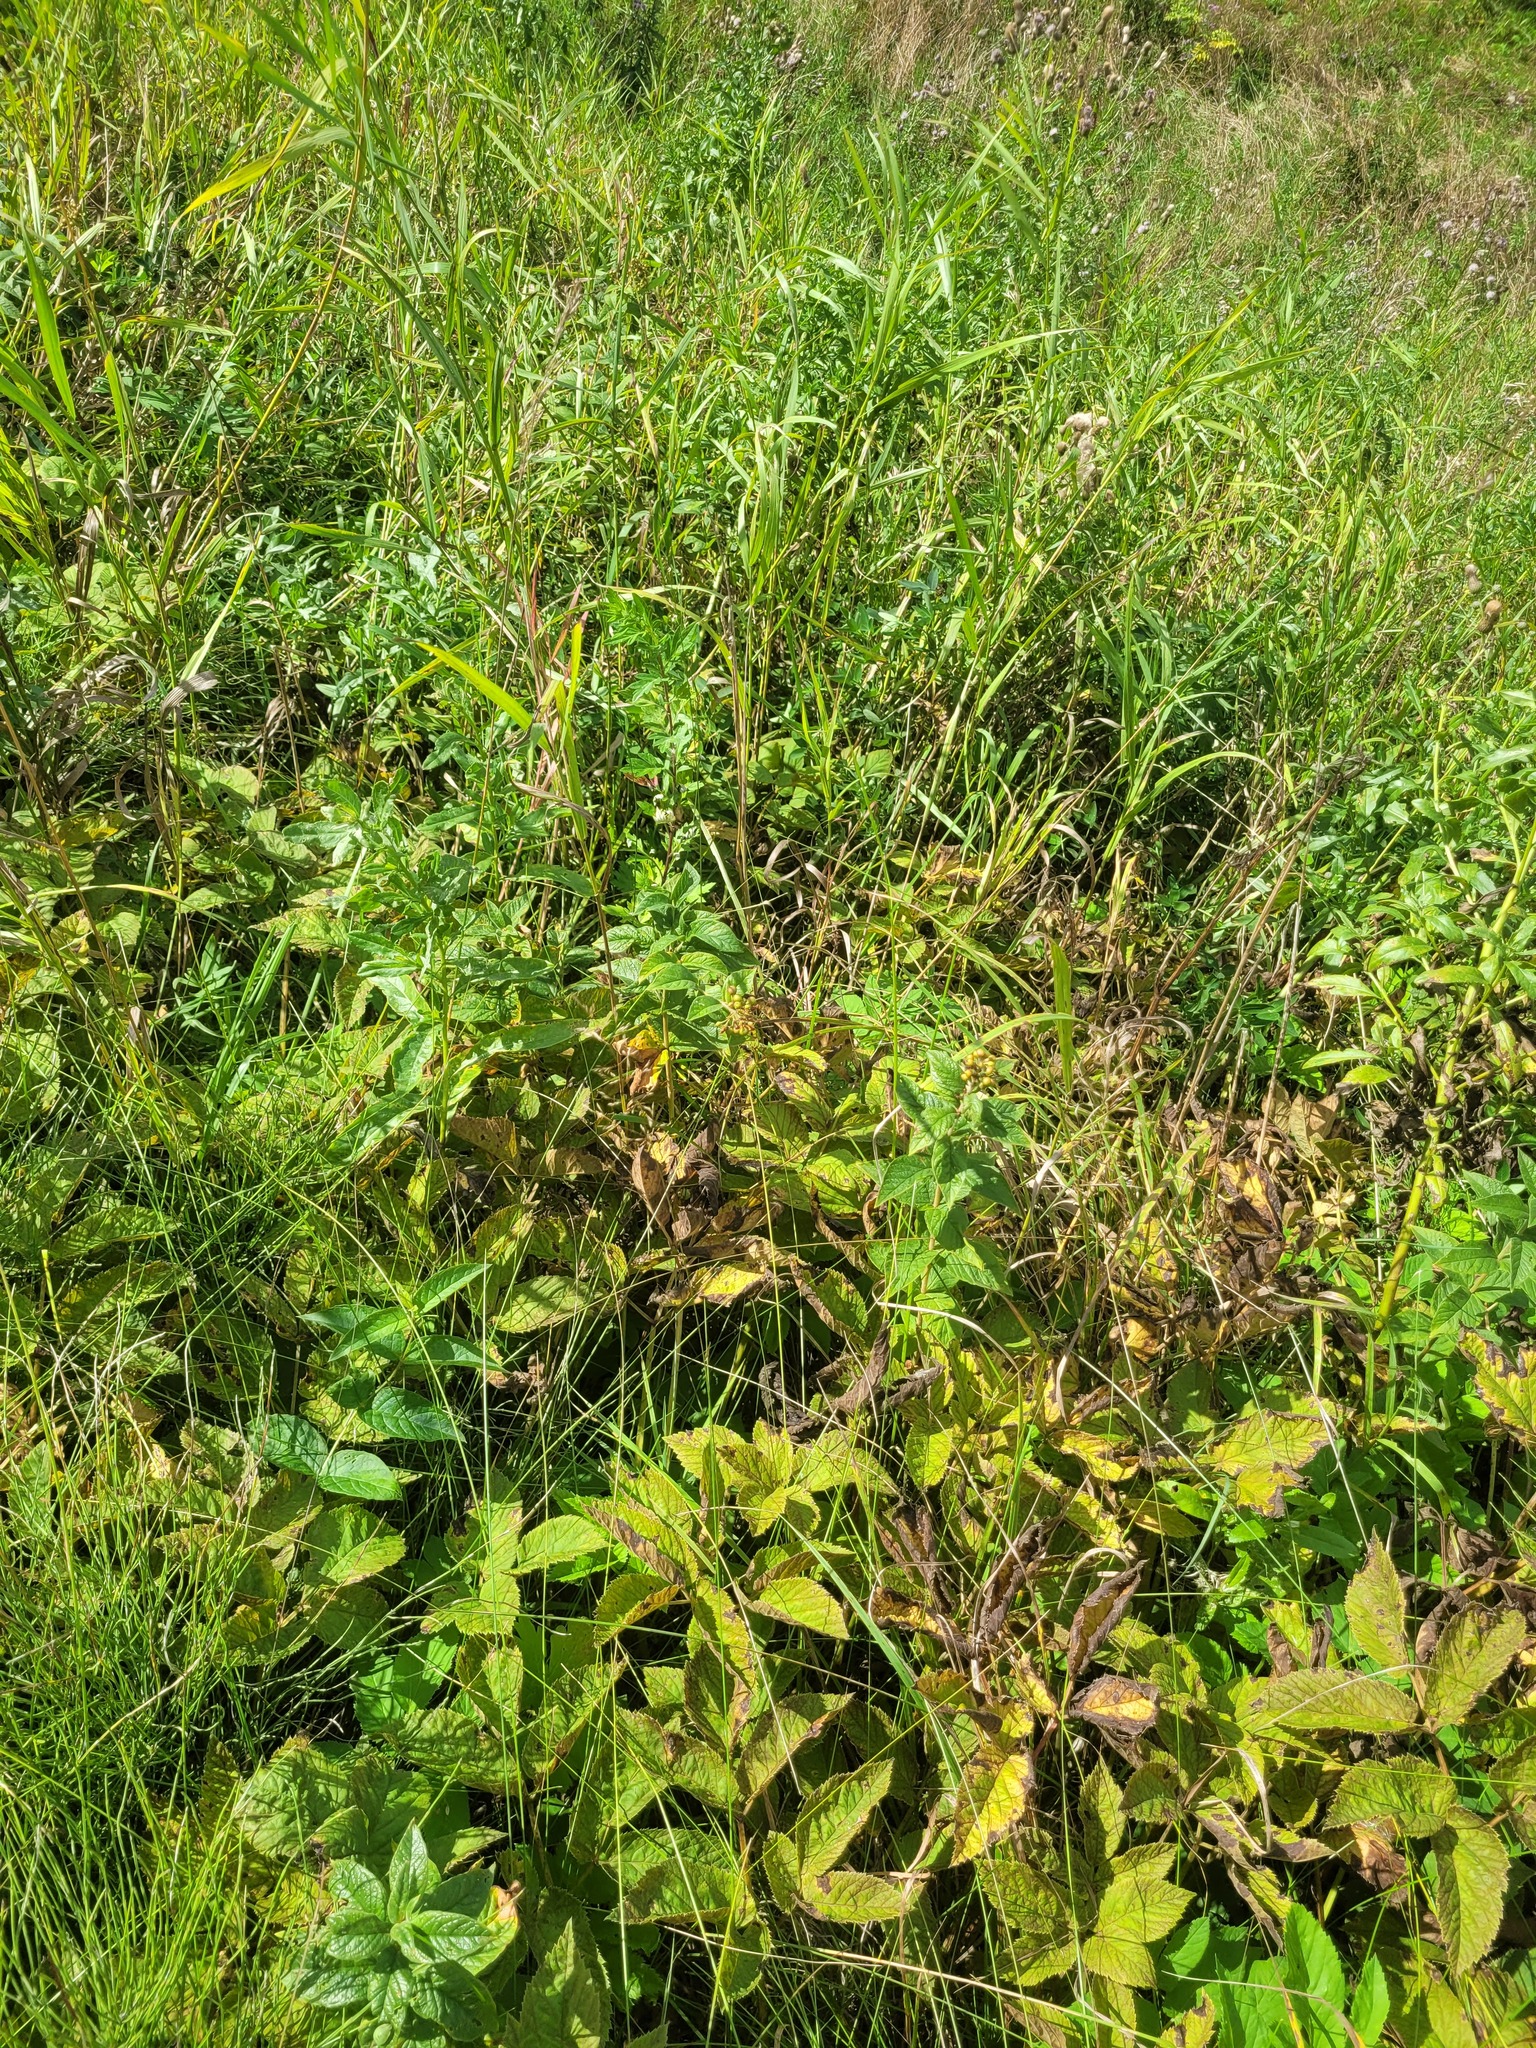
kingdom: Plantae
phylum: Tracheophyta
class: Magnoliopsida
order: Ericales
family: Primulaceae
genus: Lysimachia
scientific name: Lysimachia vulgaris
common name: Yellow loosestrife
